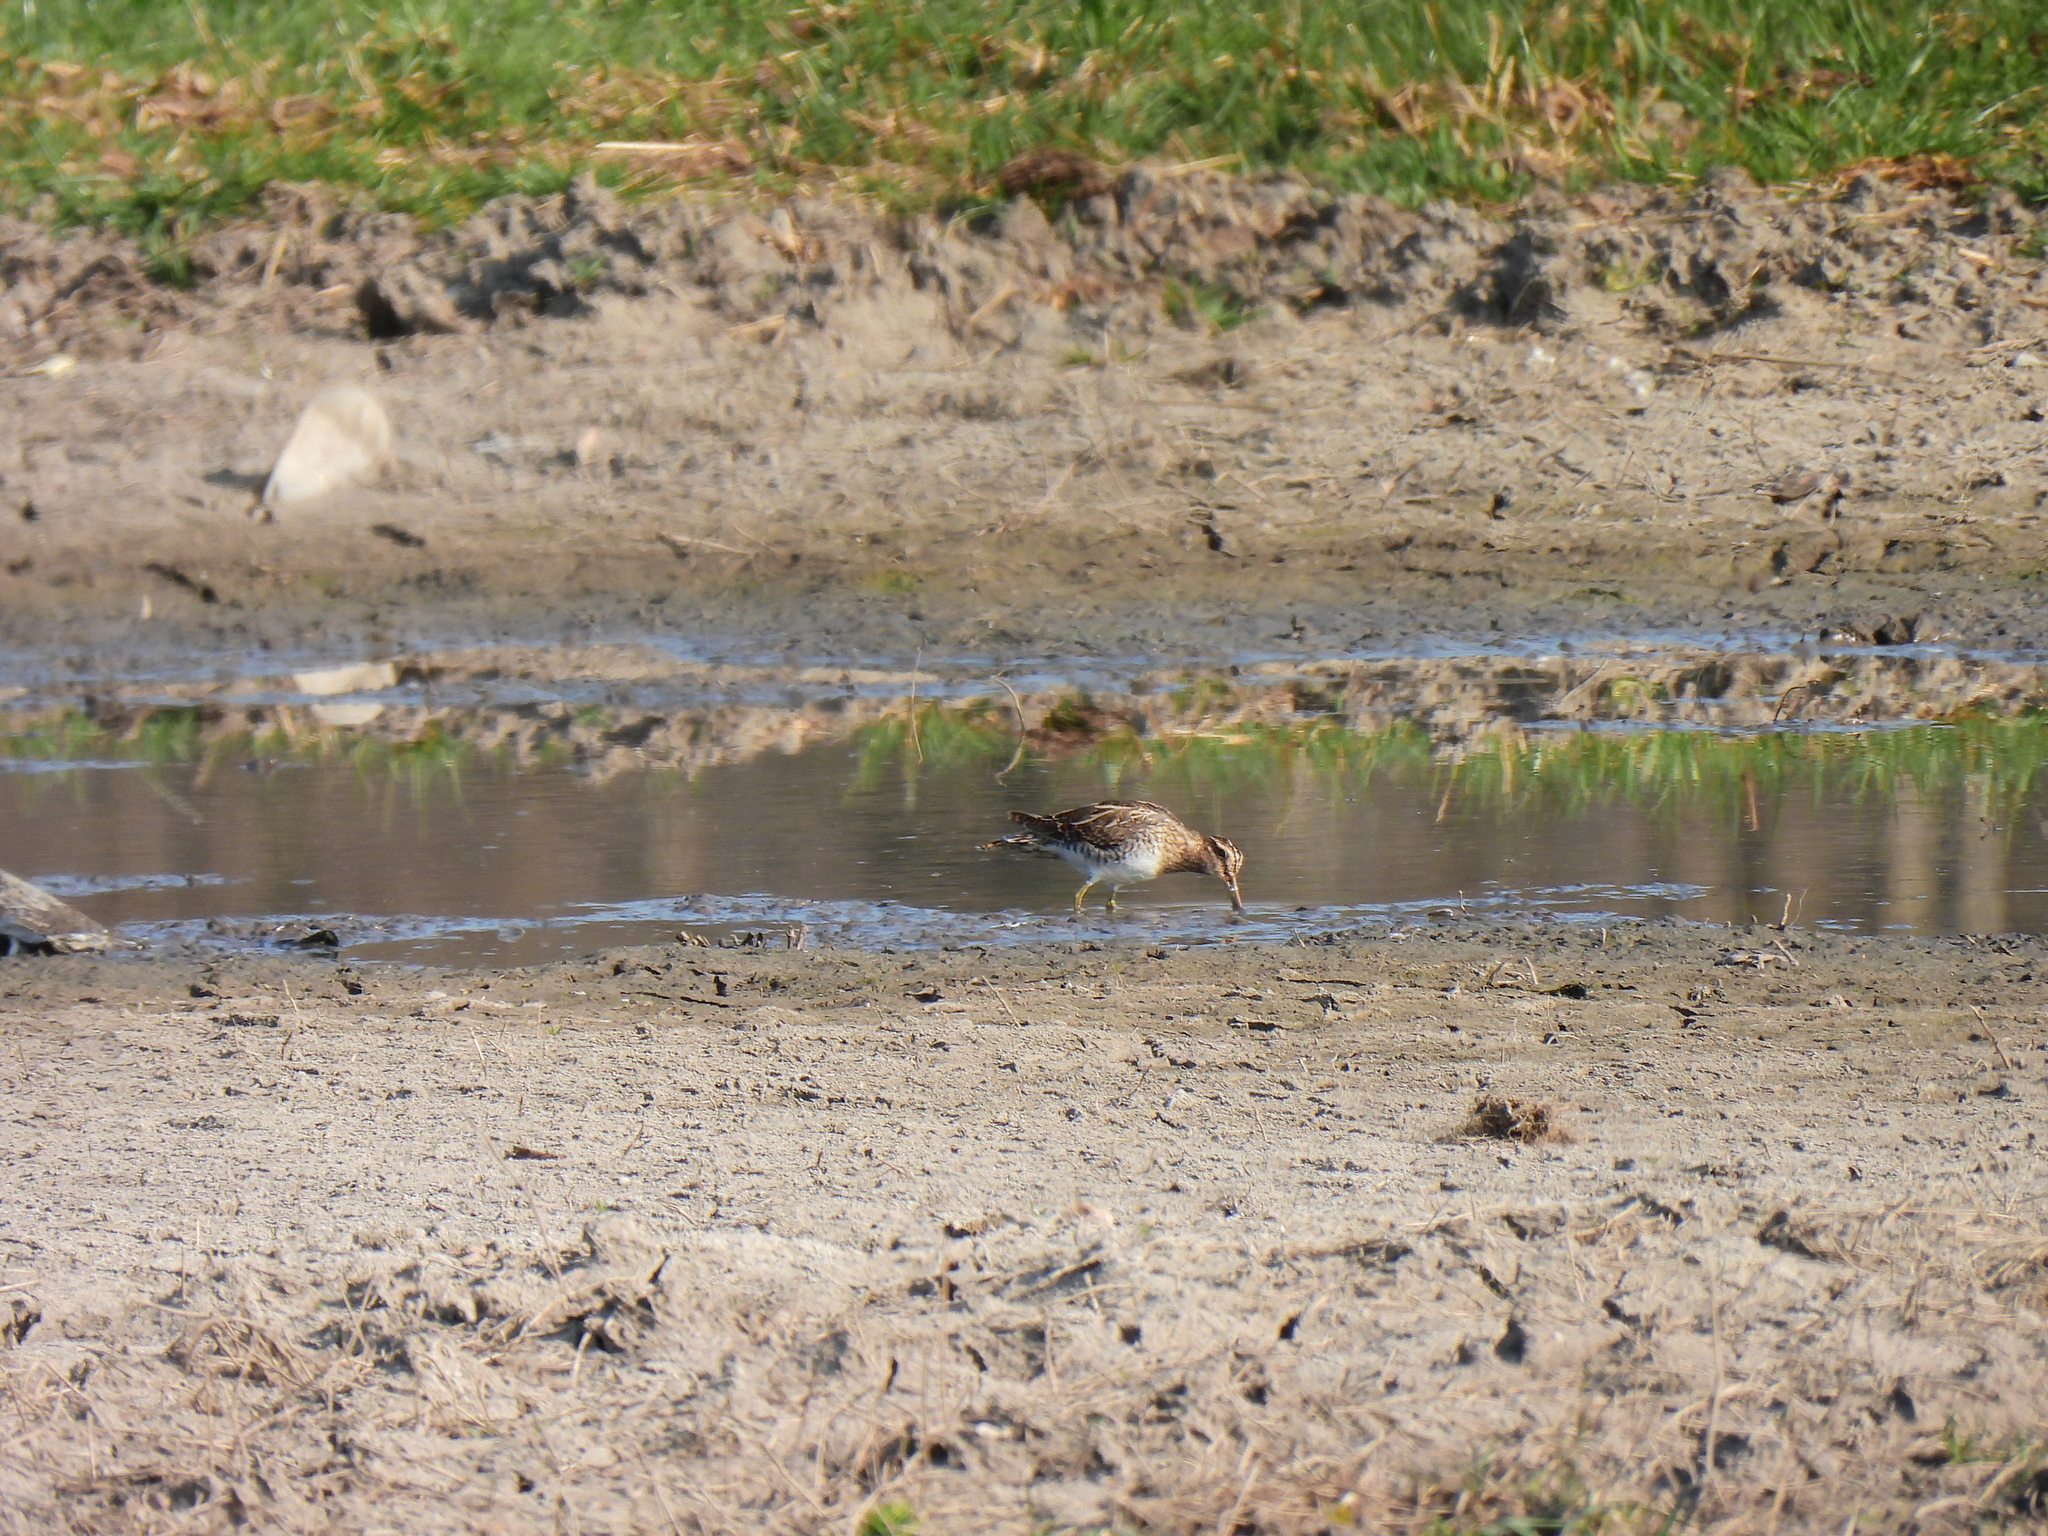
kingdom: Animalia
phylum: Chordata
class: Aves
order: Charadriiformes
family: Scolopacidae
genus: Gallinago
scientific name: Gallinago gallinago
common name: Common snipe
